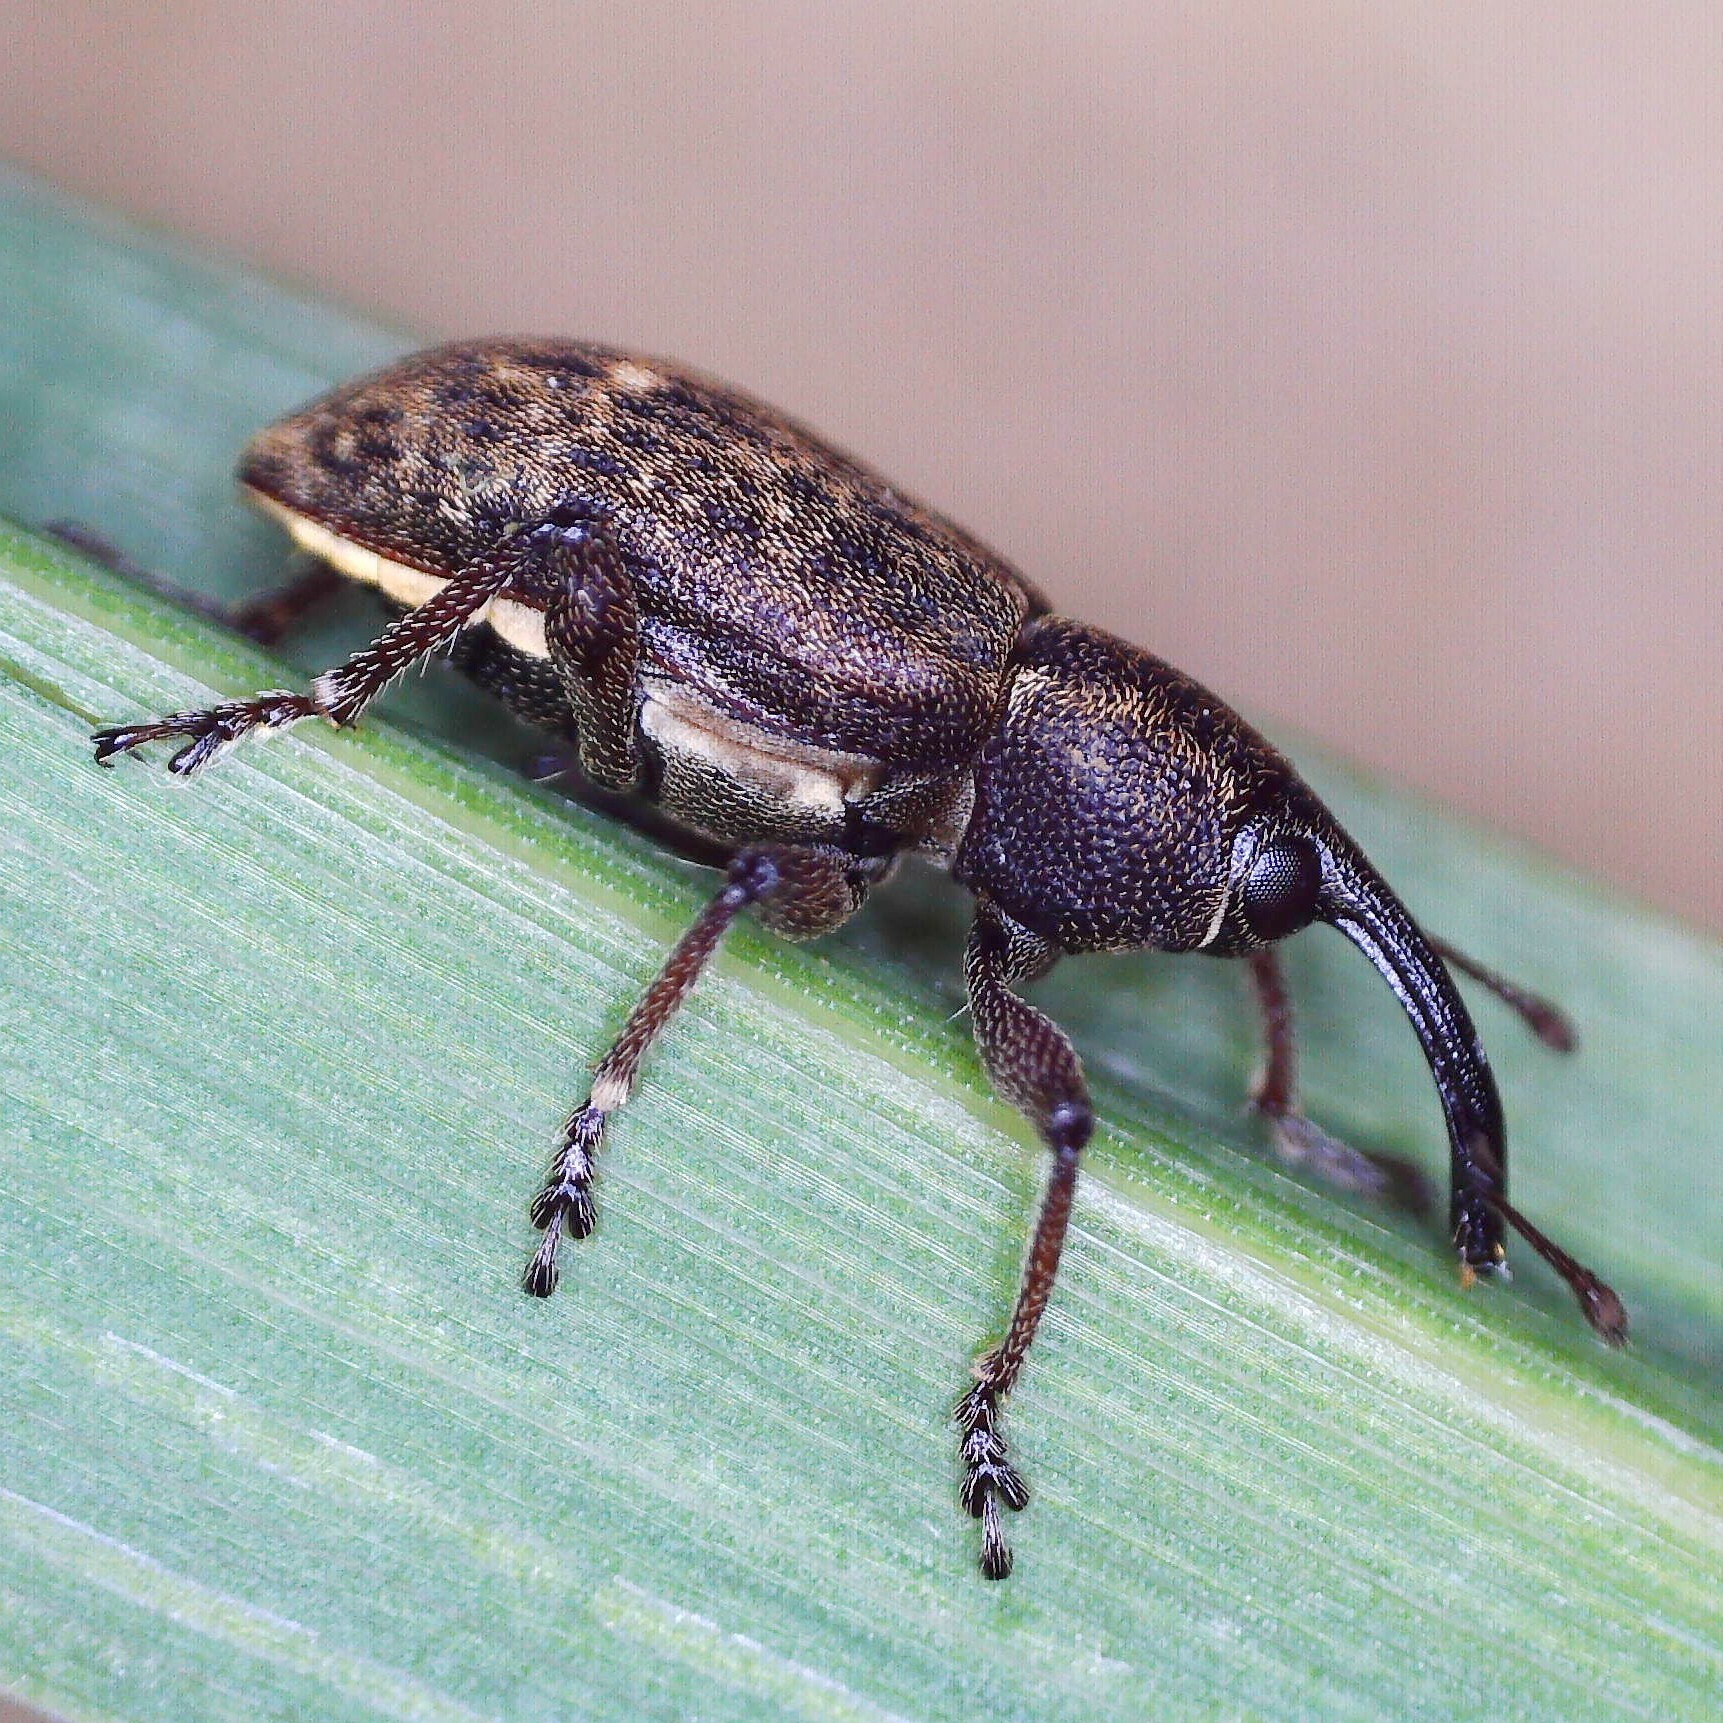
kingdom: Animalia
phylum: Arthropoda
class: Insecta
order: Coleoptera
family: Brachyceridae
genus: Notaris
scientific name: Notaris scirpi
